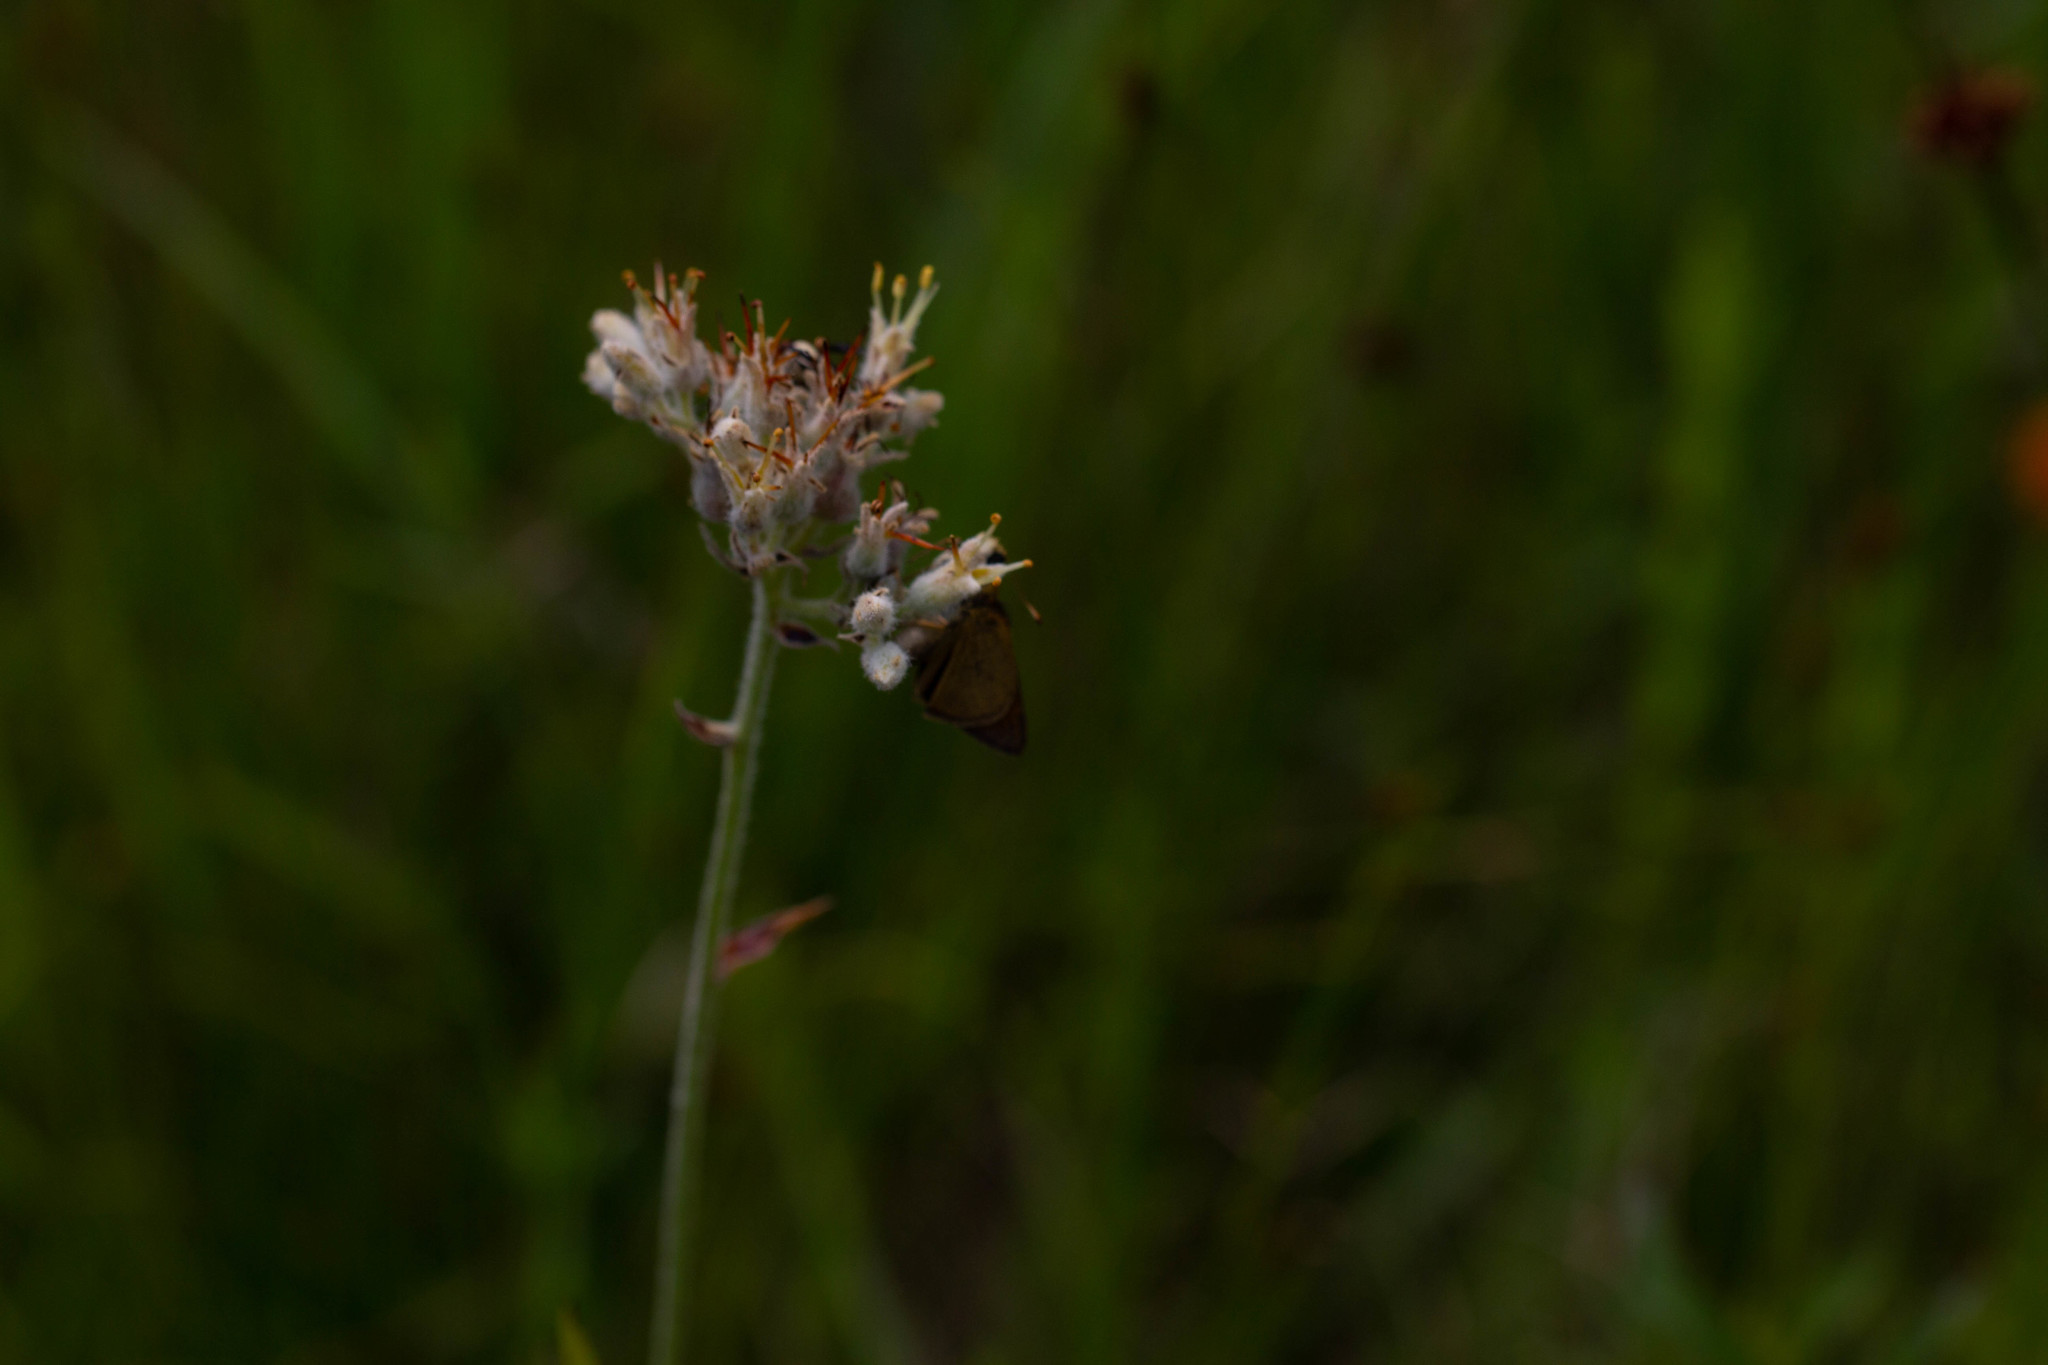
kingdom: Plantae
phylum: Tracheophyta
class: Liliopsida
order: Commelinales
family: Haemodoraceae
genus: Lachnanthes
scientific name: Lachnanthes caroliana
